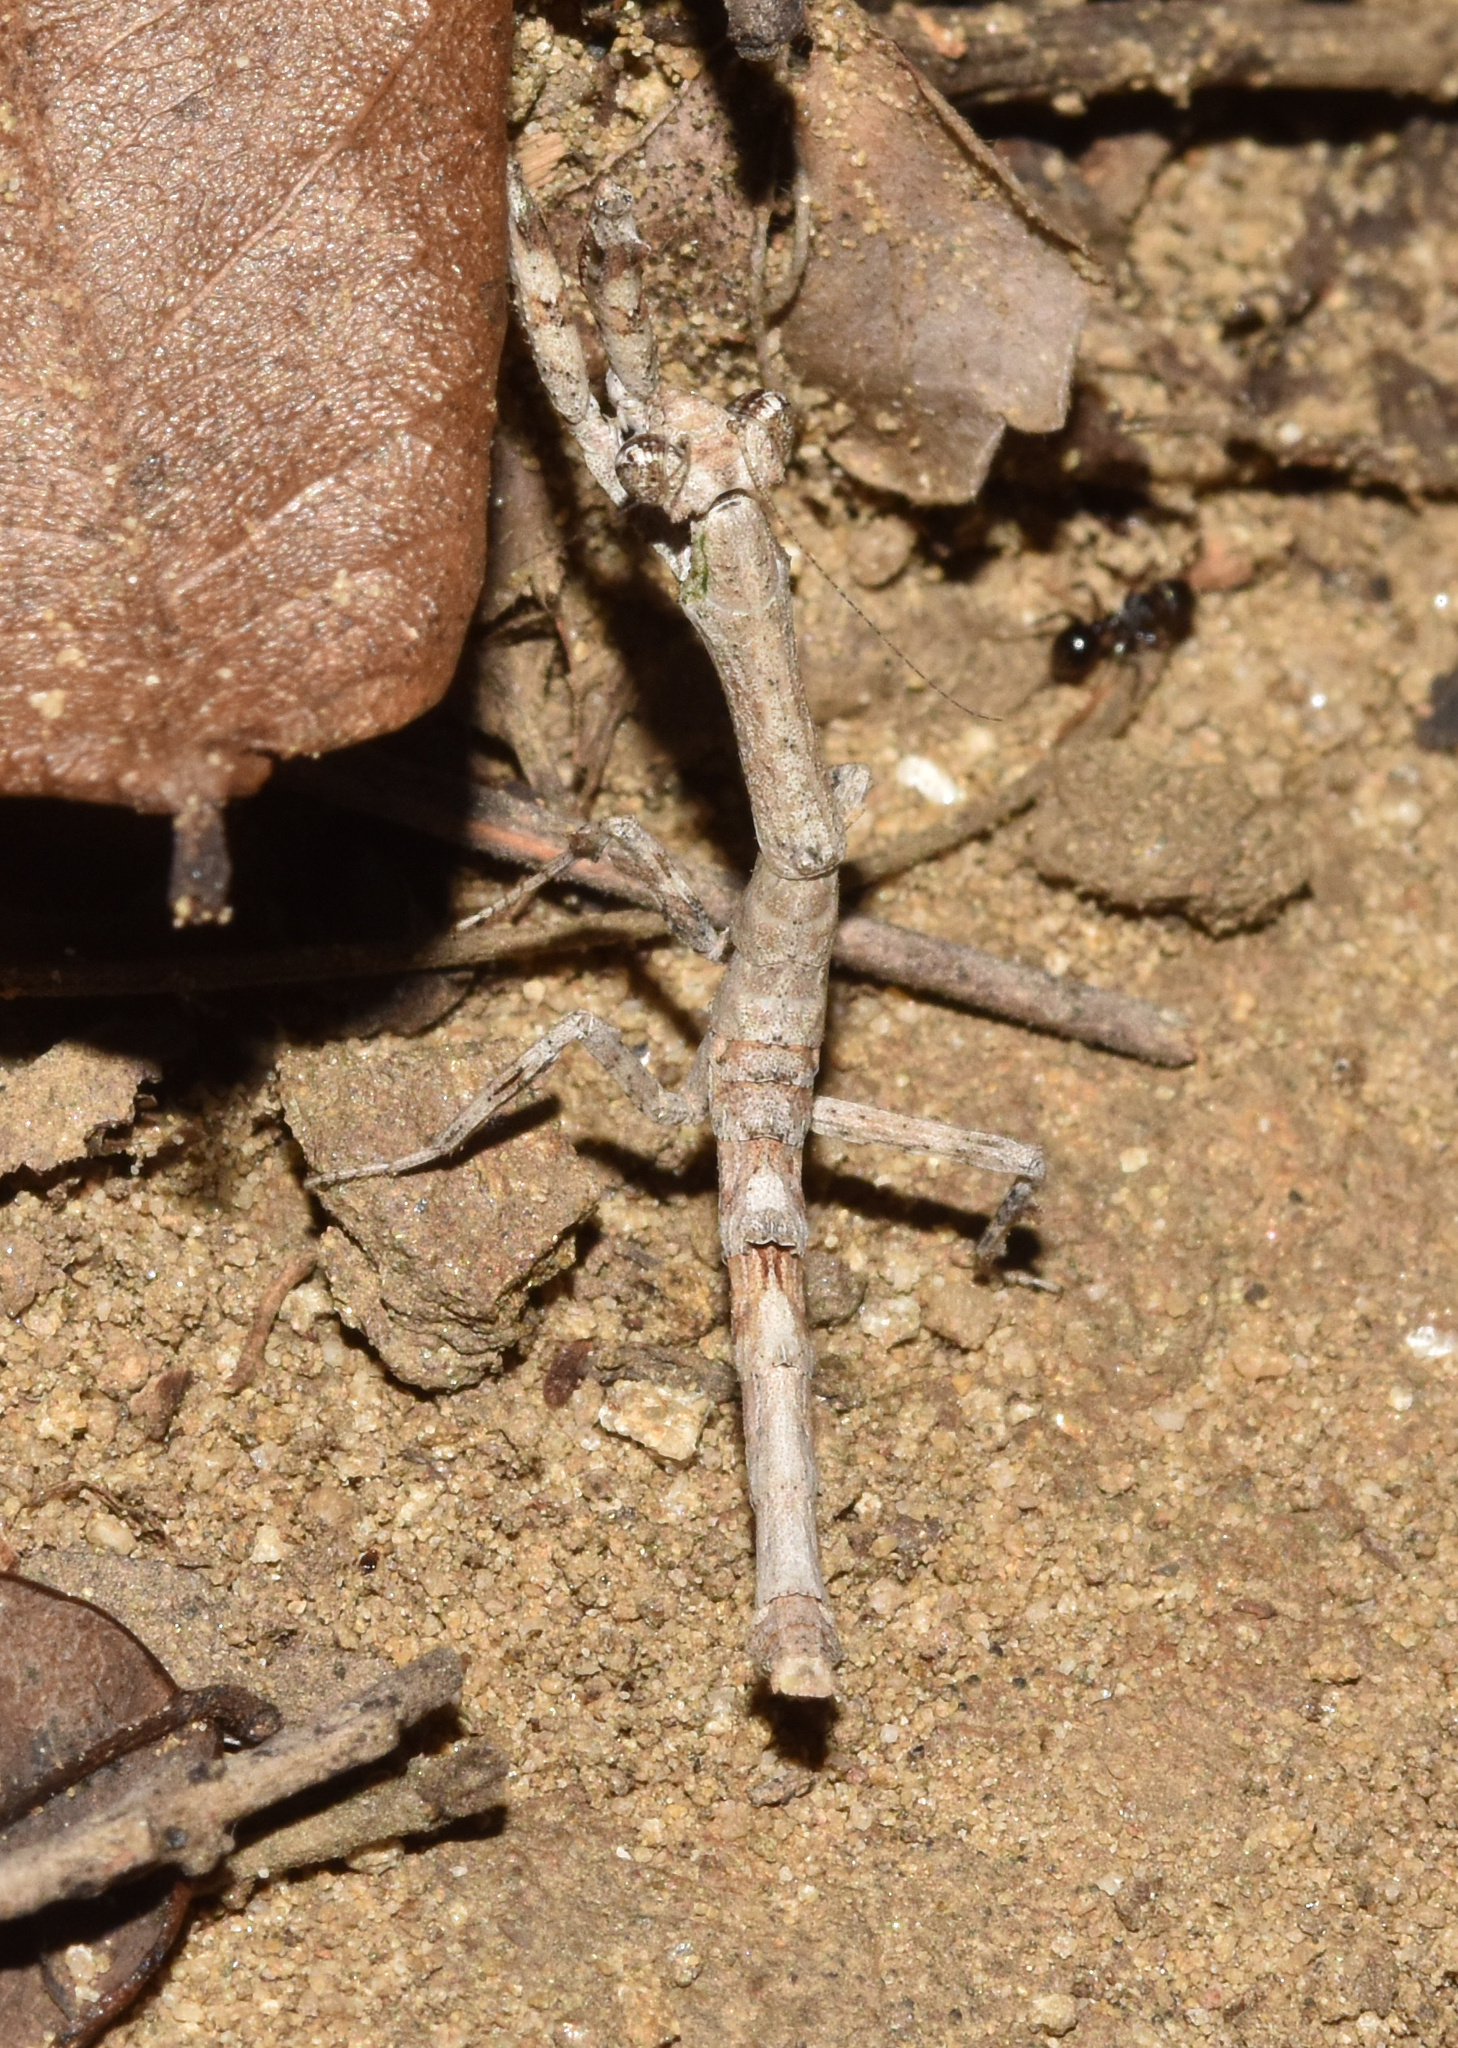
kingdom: Animalia
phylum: Arthropoda
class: Insecta
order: Mantodea
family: Deroplatyidae
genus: Popa
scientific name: Popa spurca
